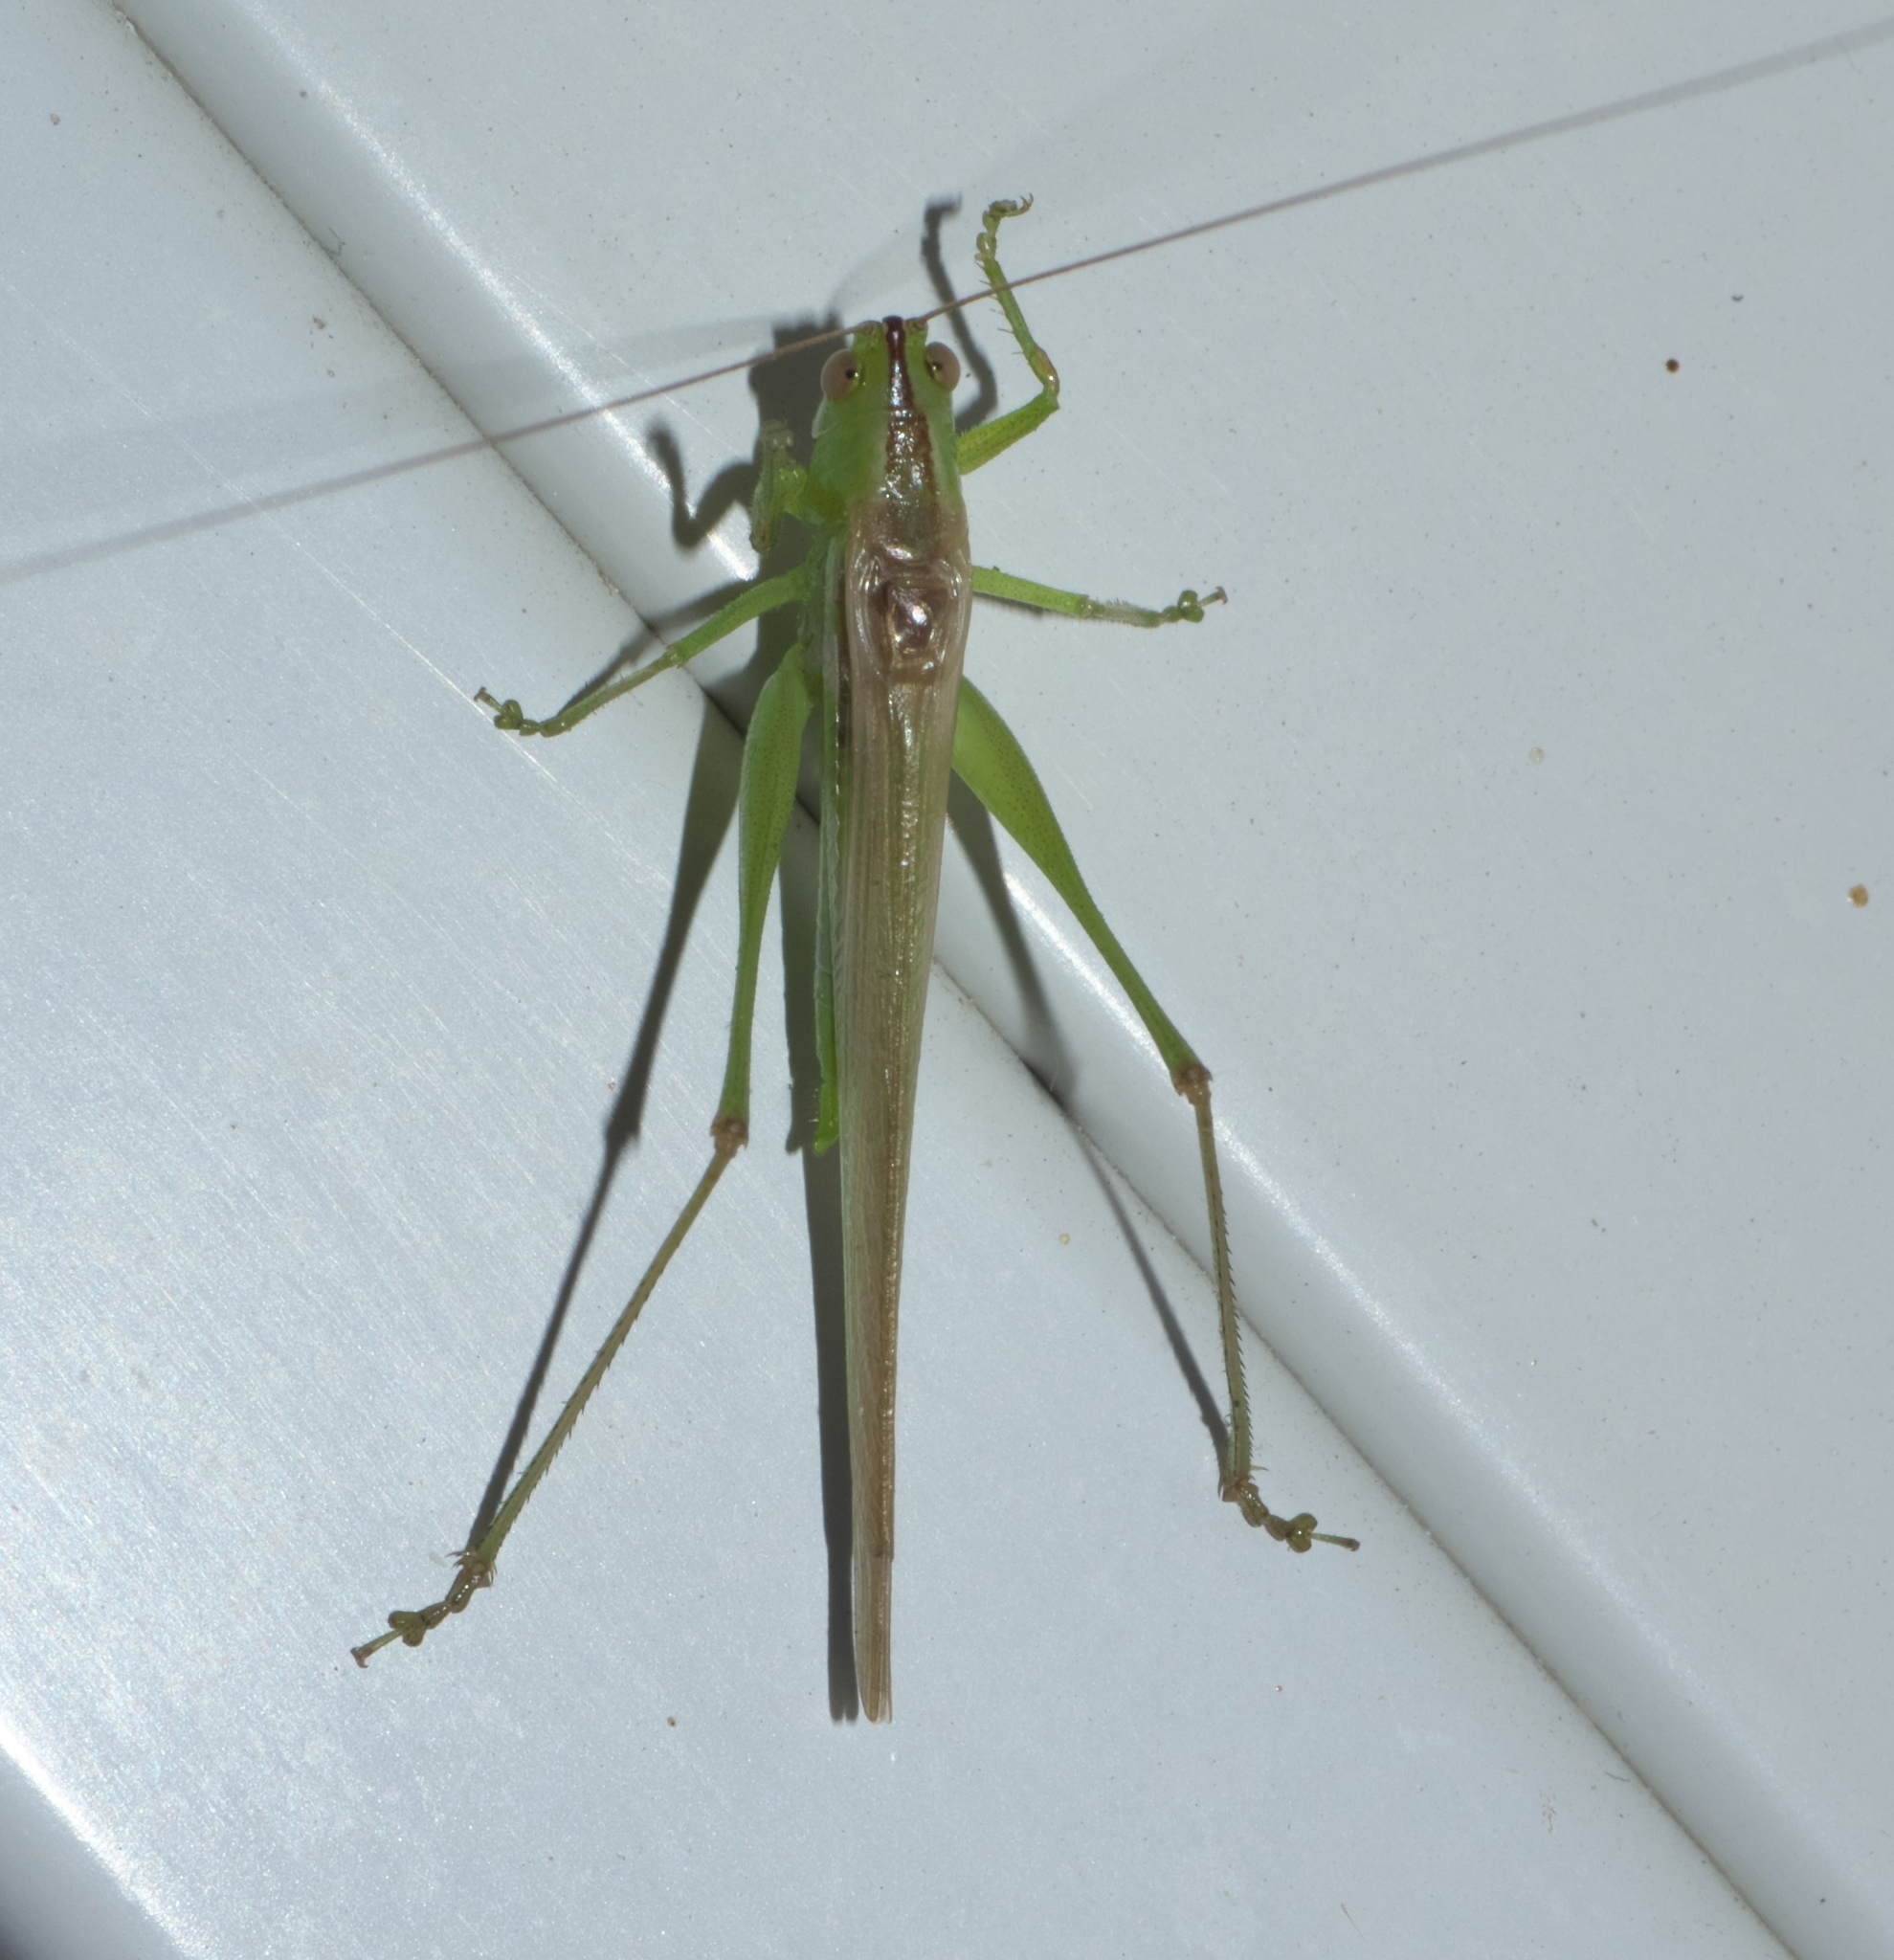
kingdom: Animalia
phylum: Arthropoda
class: Insecta
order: Orthoptera
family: Tettigoniidae
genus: Conocephalus
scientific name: Conocephalus fasciatus
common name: Slender meadow katydid
